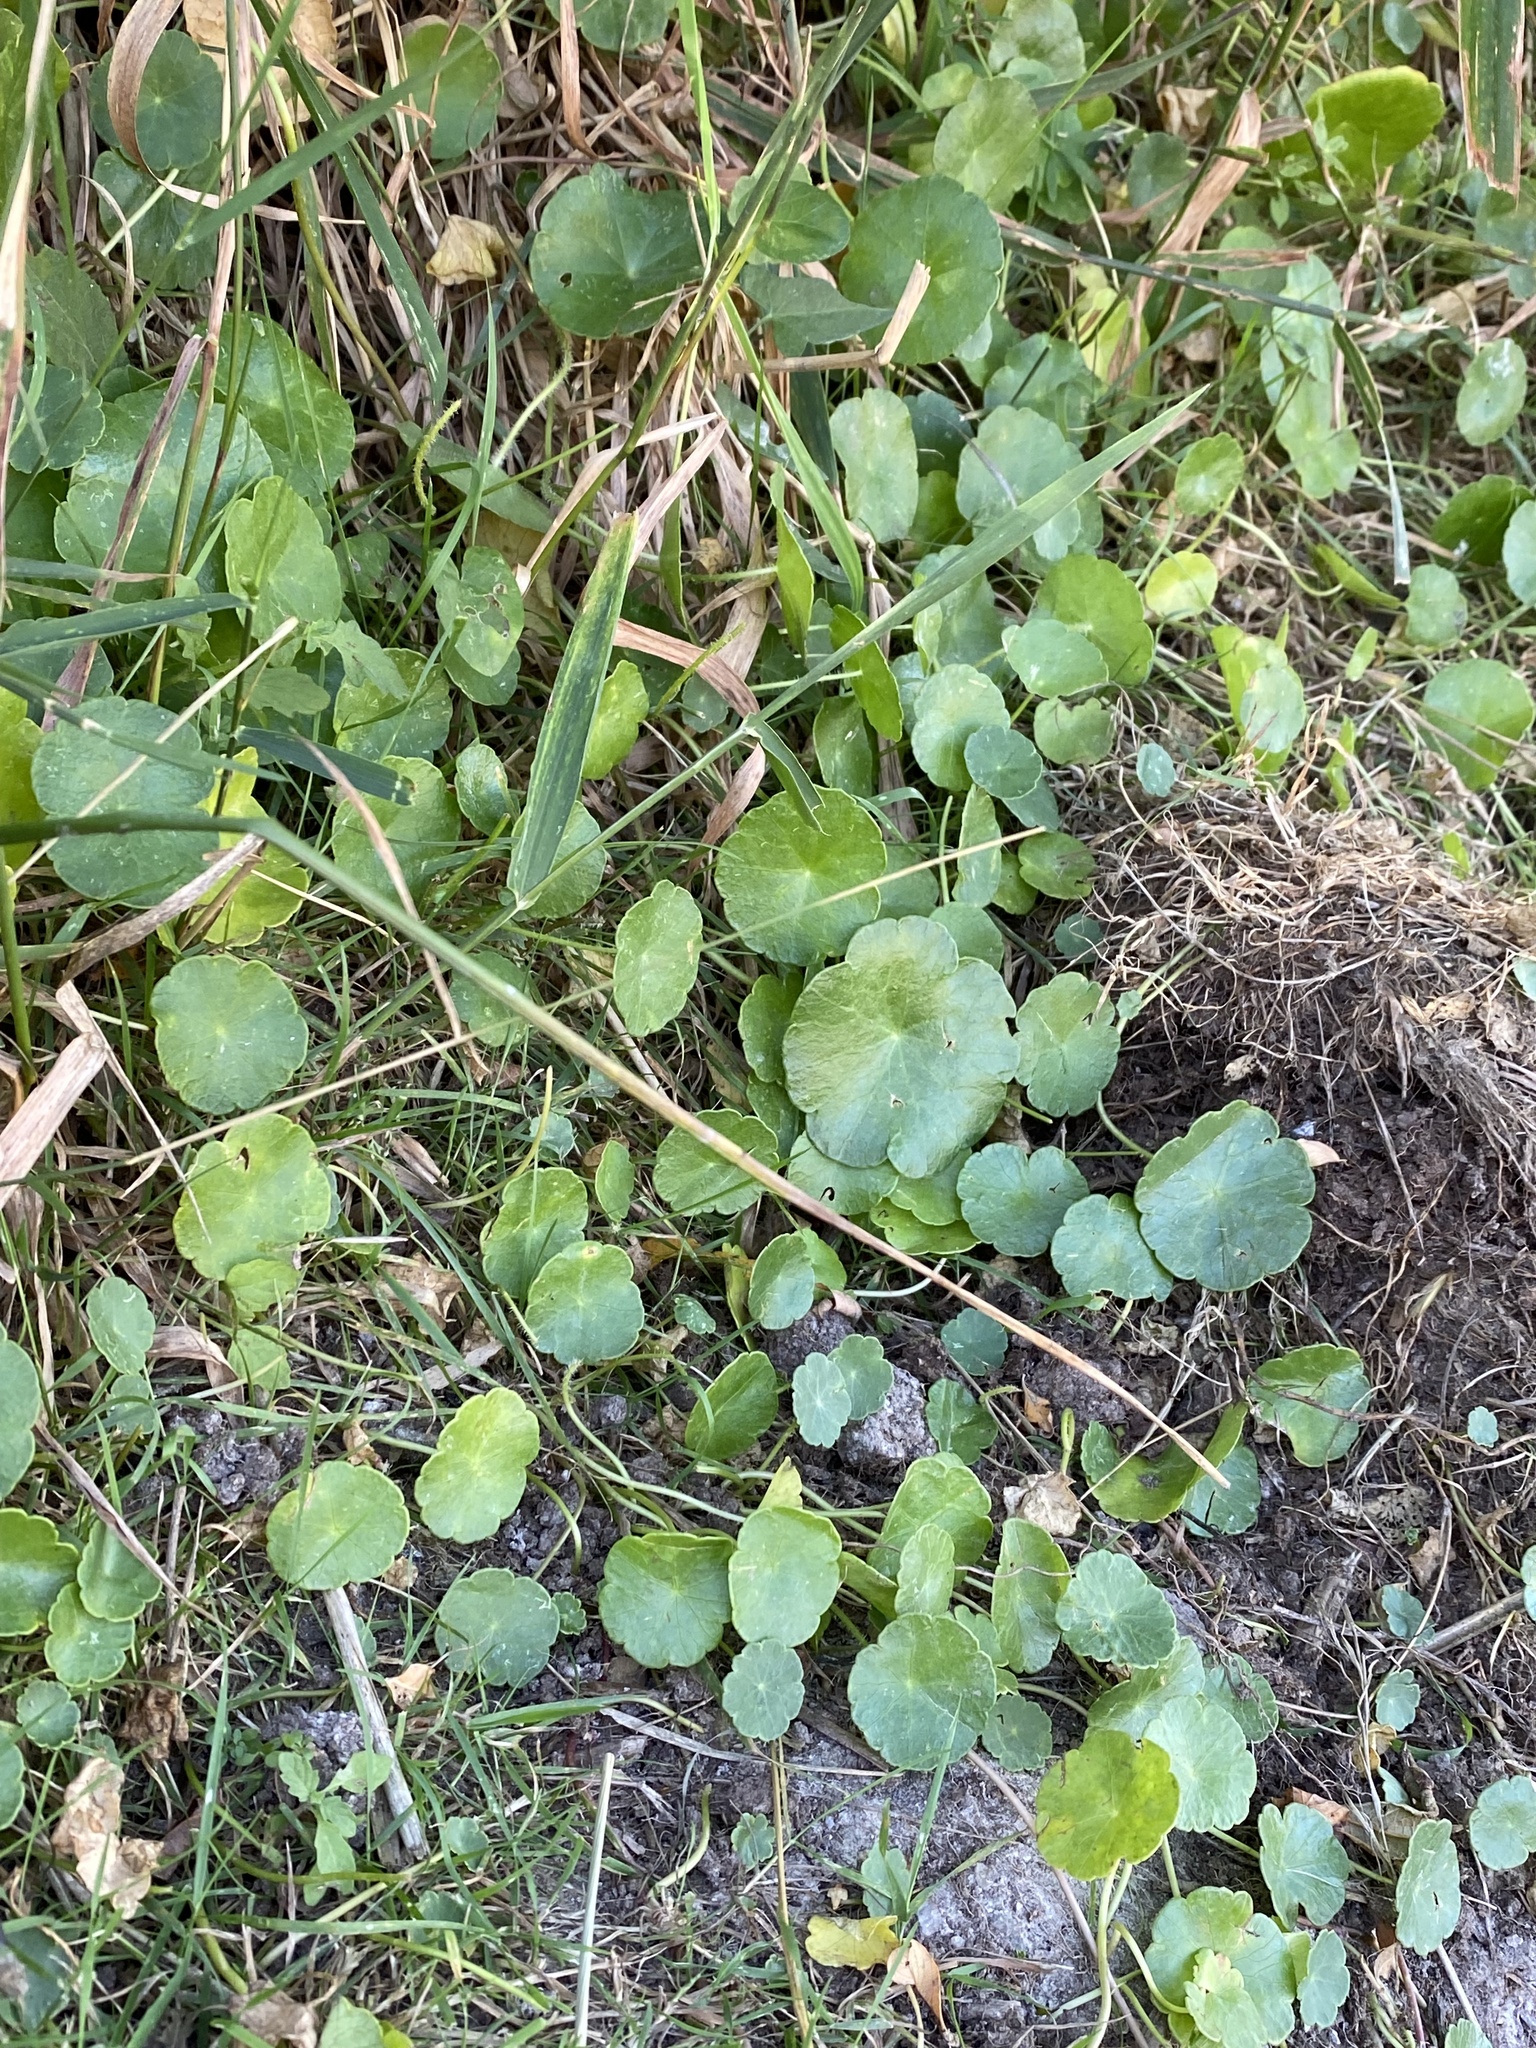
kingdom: Plantae
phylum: Tracheophyta
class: Magnoliopsida
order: Apiales
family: Araliaceae
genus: Hydrocotyle
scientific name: Hydrocotyle vulgaris
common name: Marsh pennywort
